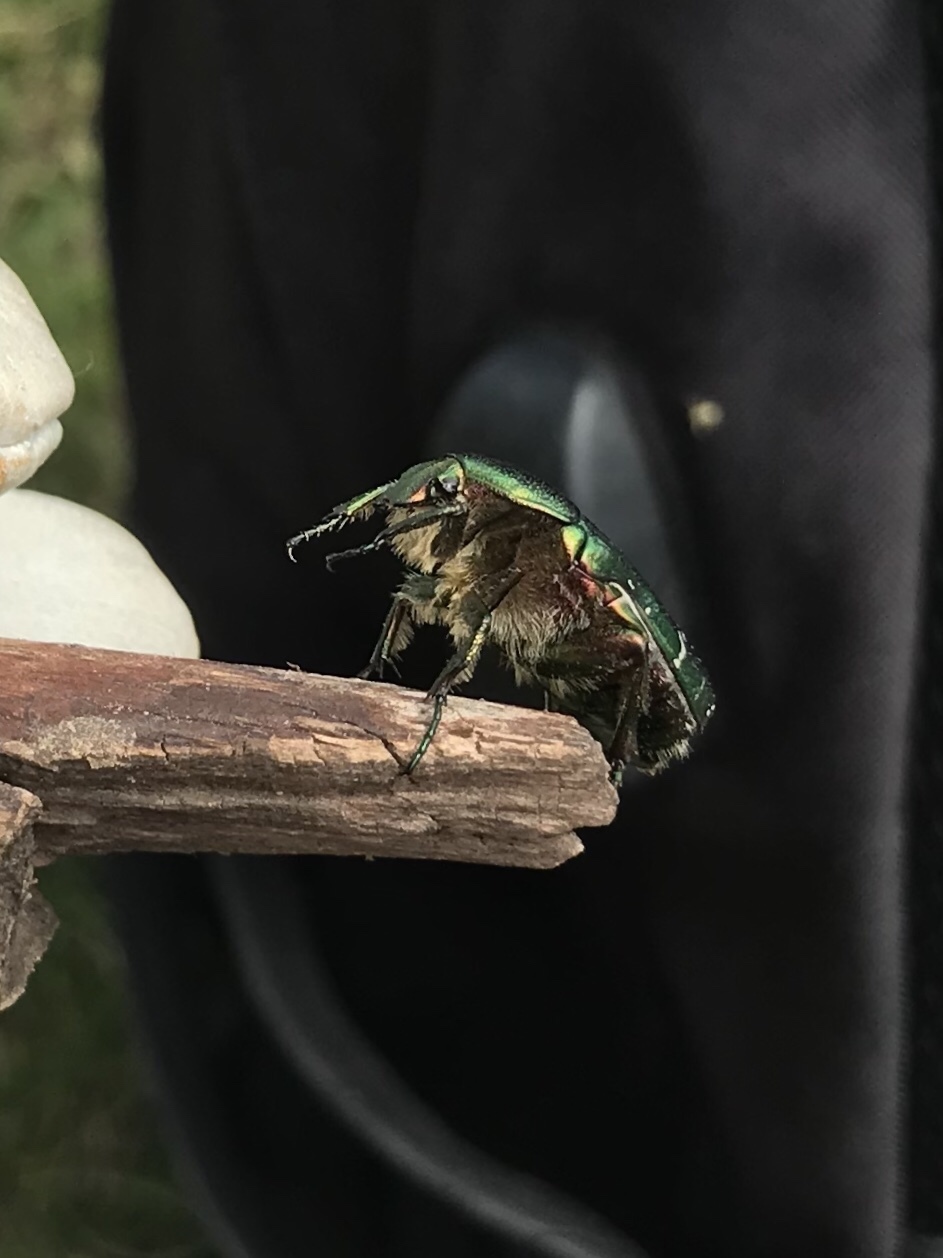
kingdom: Animalia
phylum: Arthropoda
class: Insecta
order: Coleoptera
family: Scarabaeidae
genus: Cetonia
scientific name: Cetonia aurata
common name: Rose chafer
